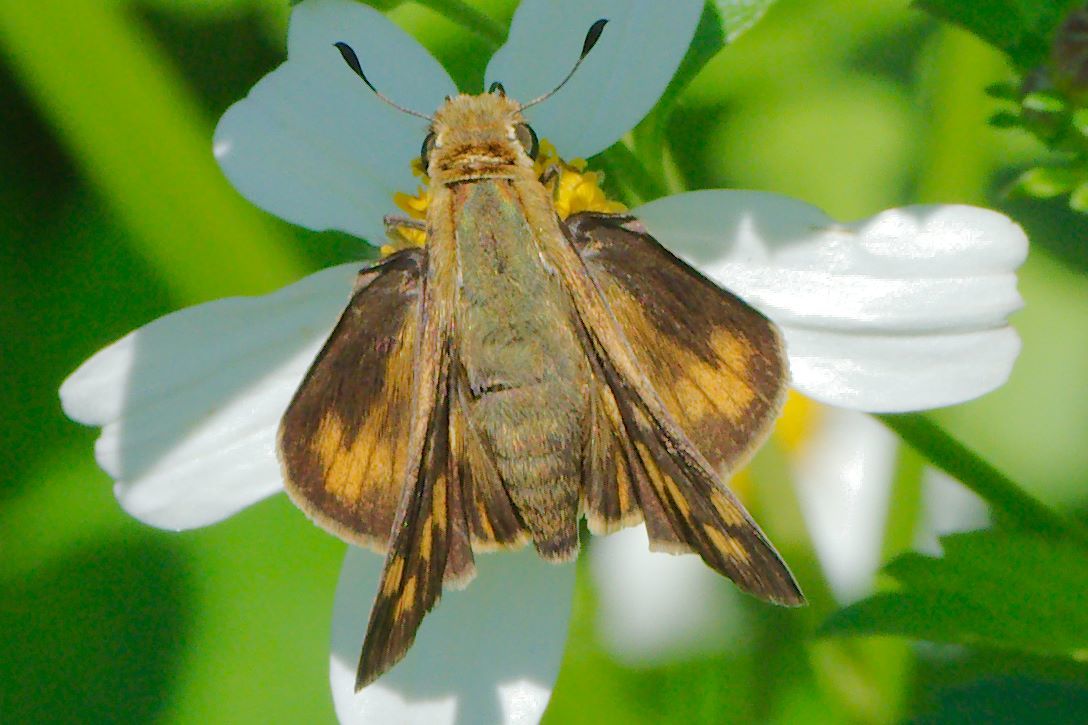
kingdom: Animalia
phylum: Arthropoda
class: Insecta
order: Lepidoptera
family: Hesperiidae
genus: Hylephila
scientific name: Hylephila phyleus
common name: Fiery skipper
